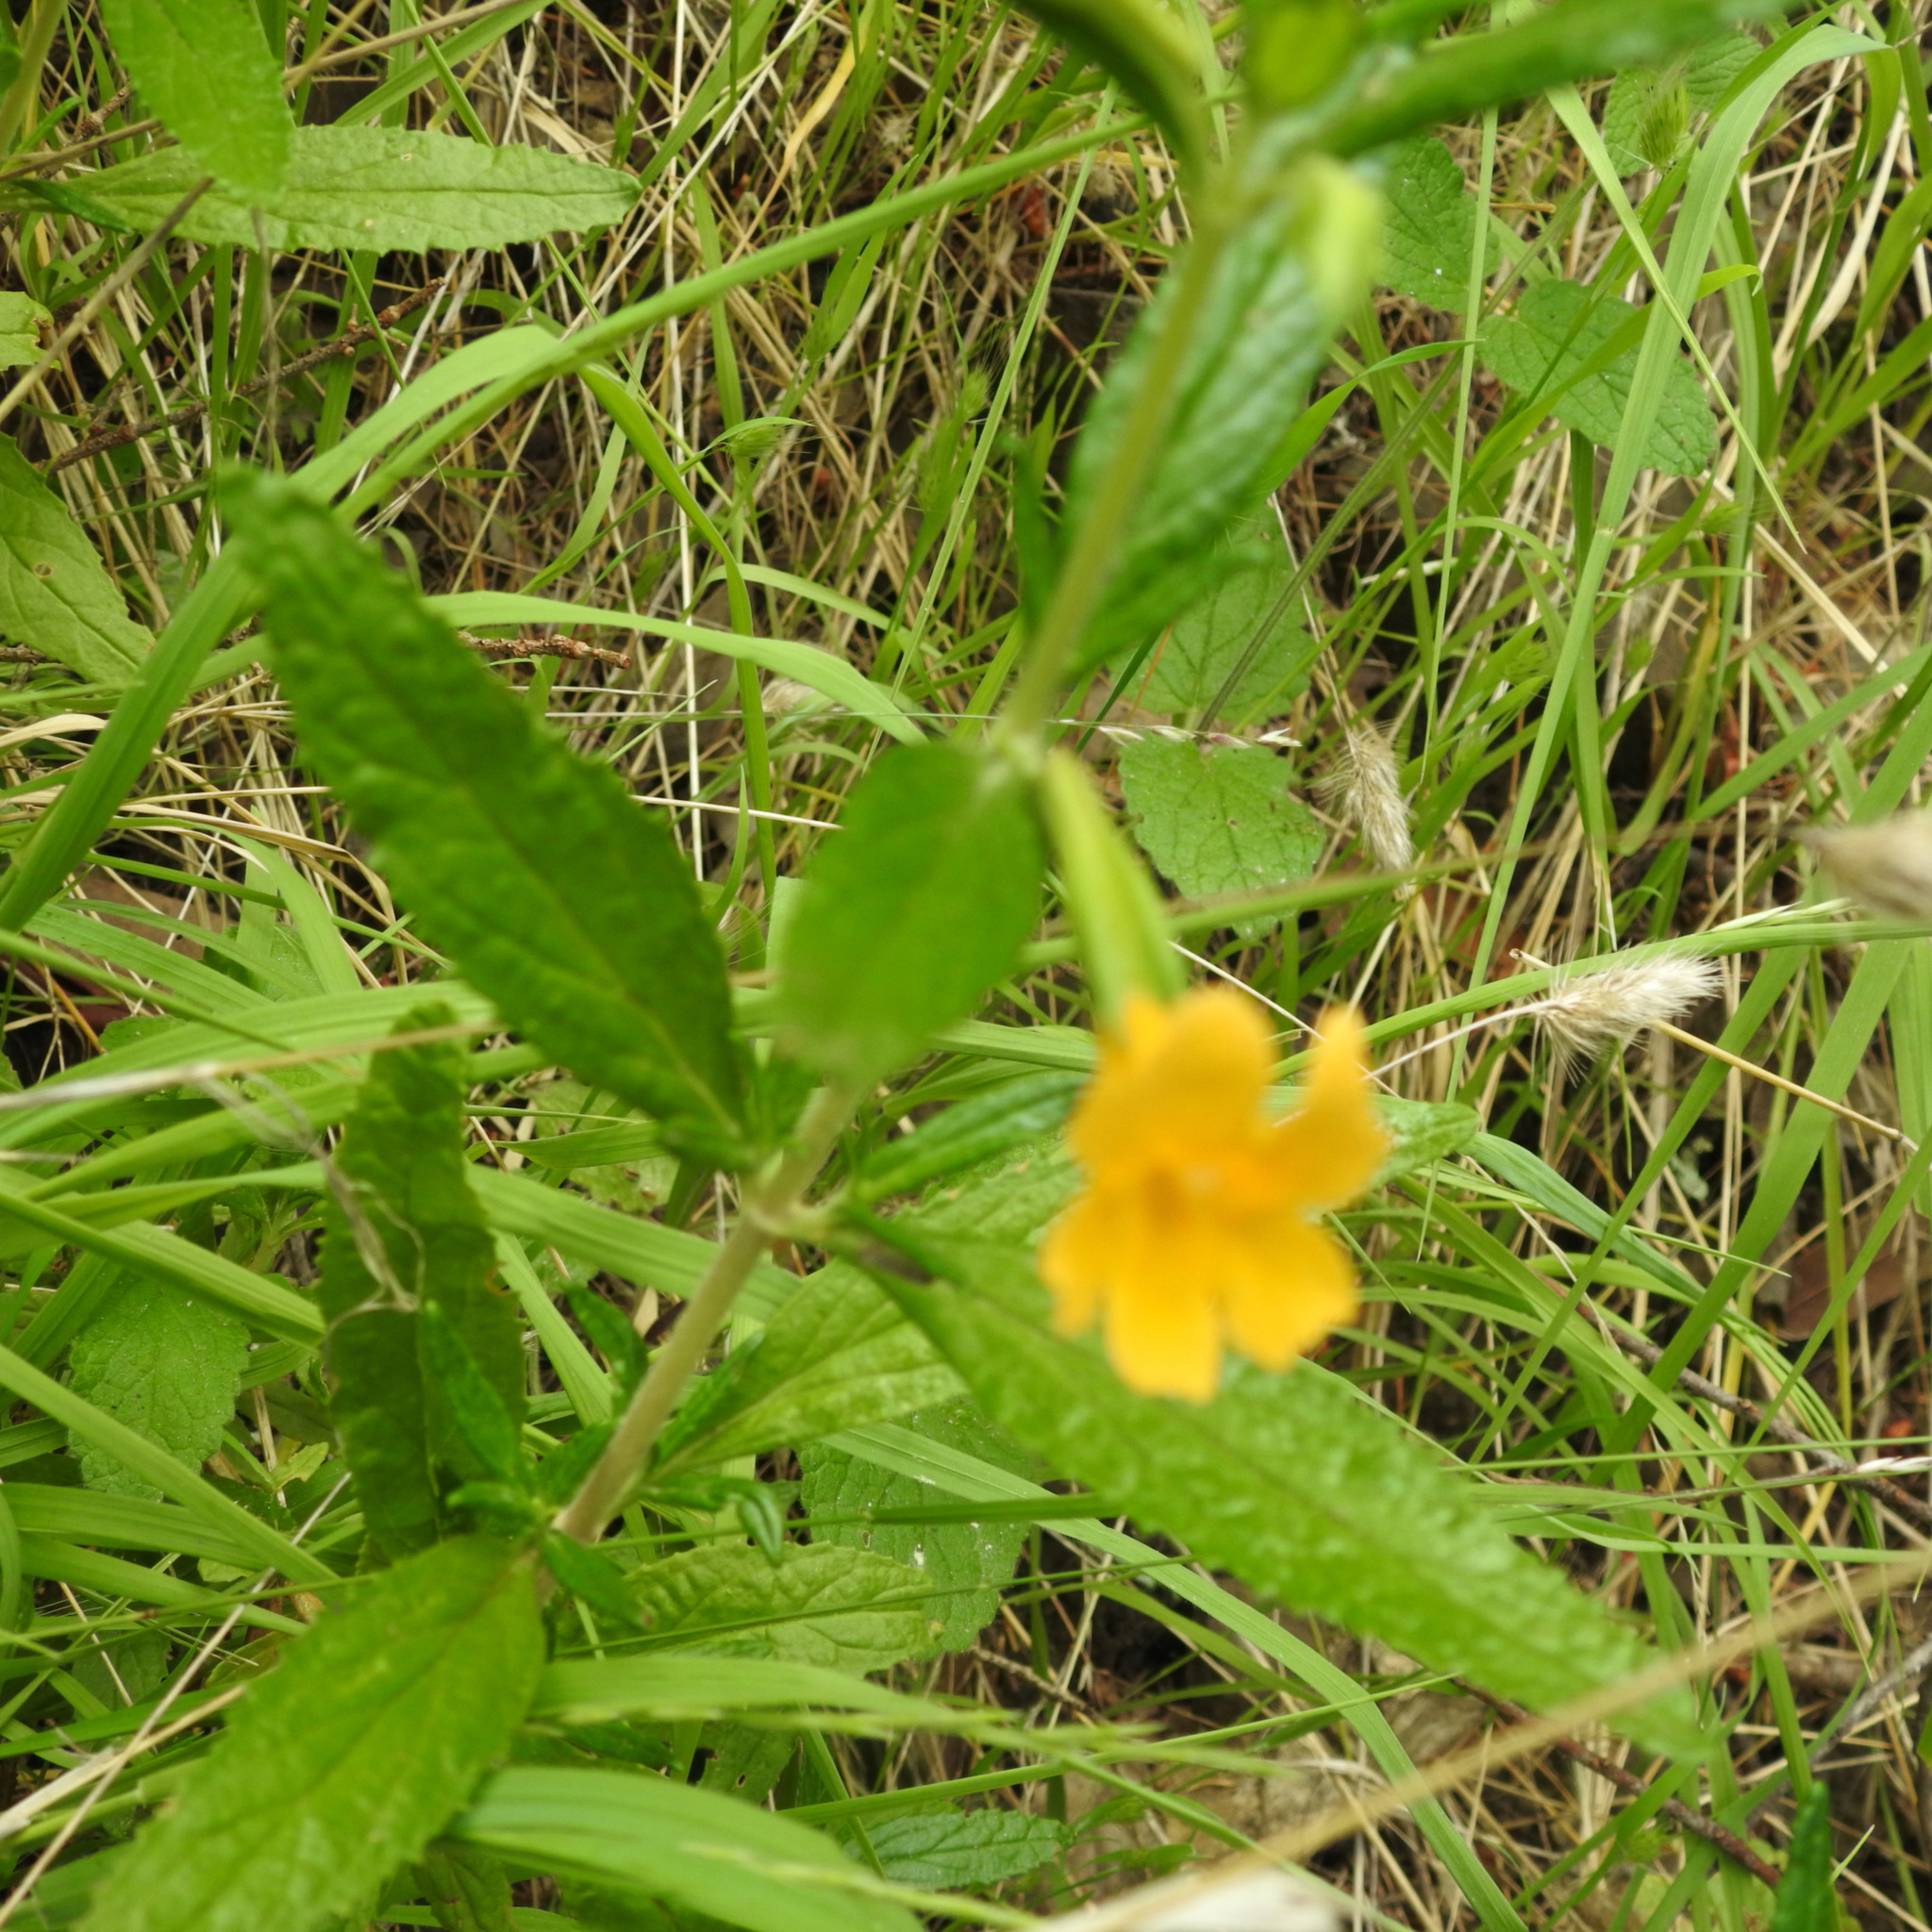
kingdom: Plantae
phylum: Tracheophyta
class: Magnoliopsida
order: Lamiales
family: Phrymaceae
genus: Diplacus
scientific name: Diplacus aurantiacus
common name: Bush monkey-flower
